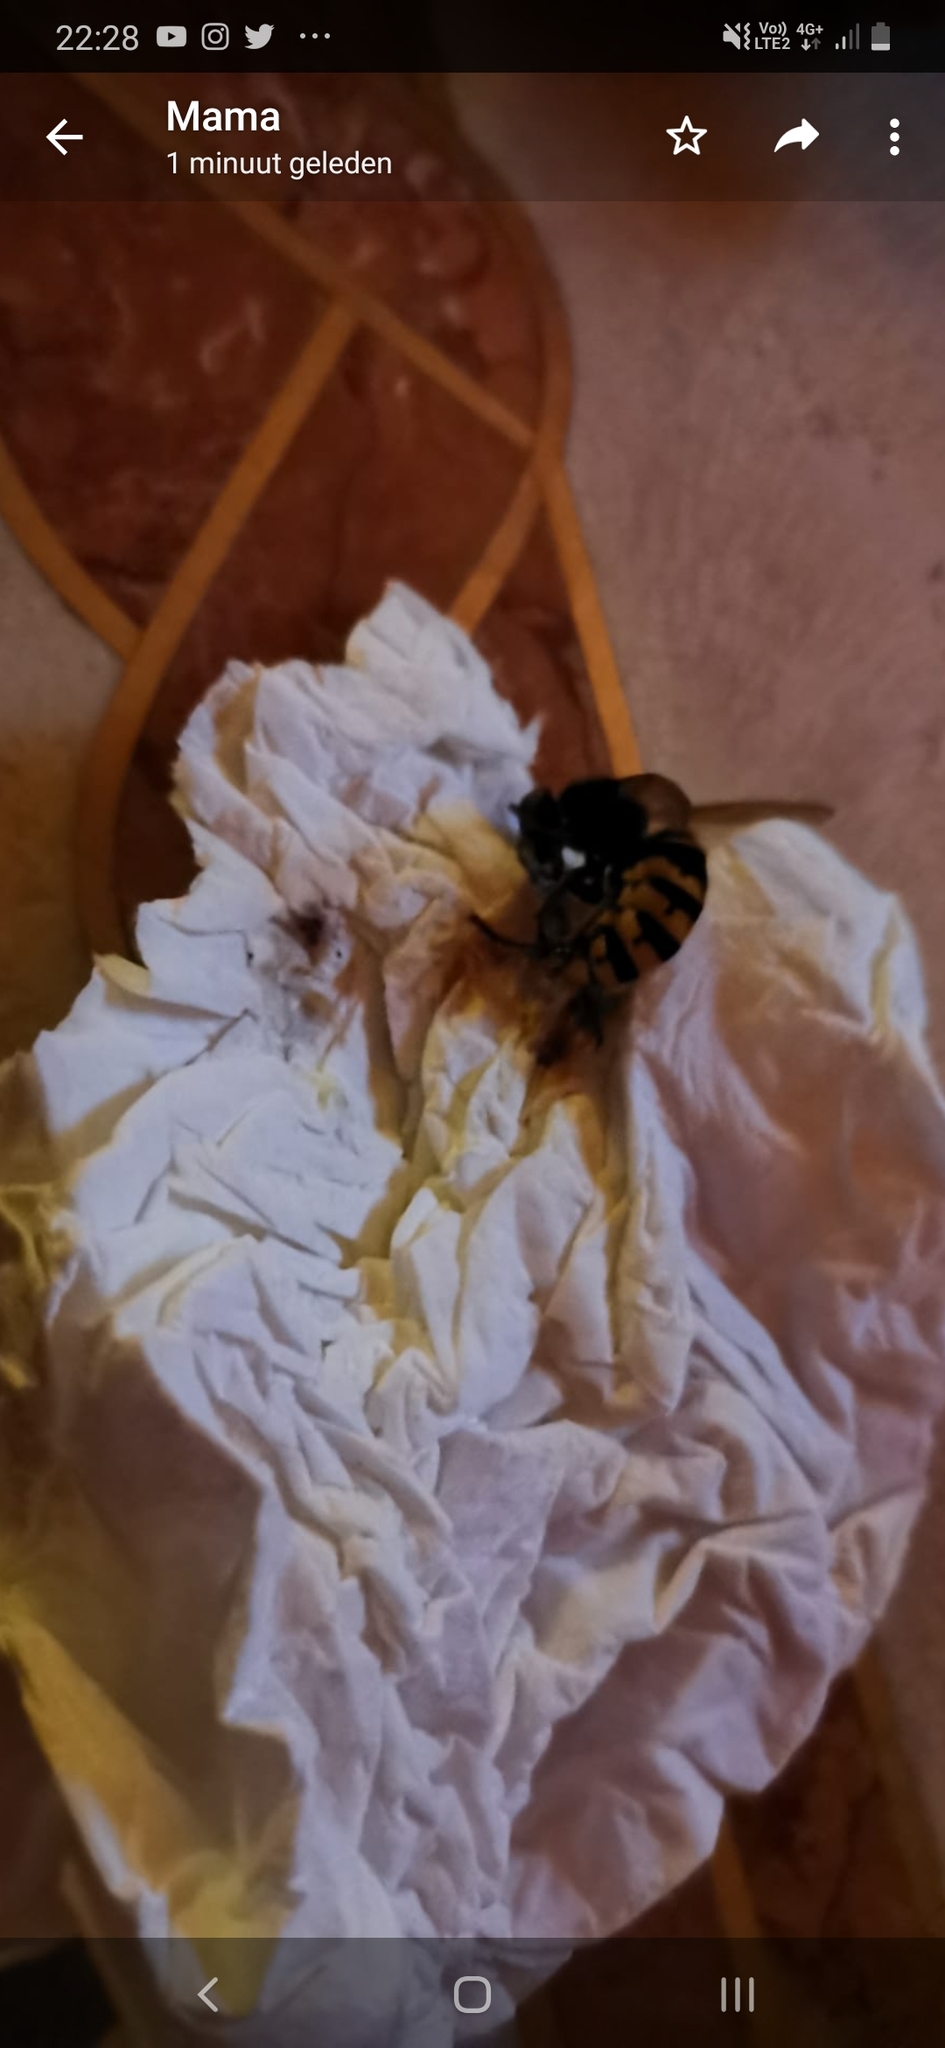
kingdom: Animalia
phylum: Arthropoda
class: Insecta
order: Hymenoptera
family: Vespidae
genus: Vespa
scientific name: Vespa crabro
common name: Hornet
